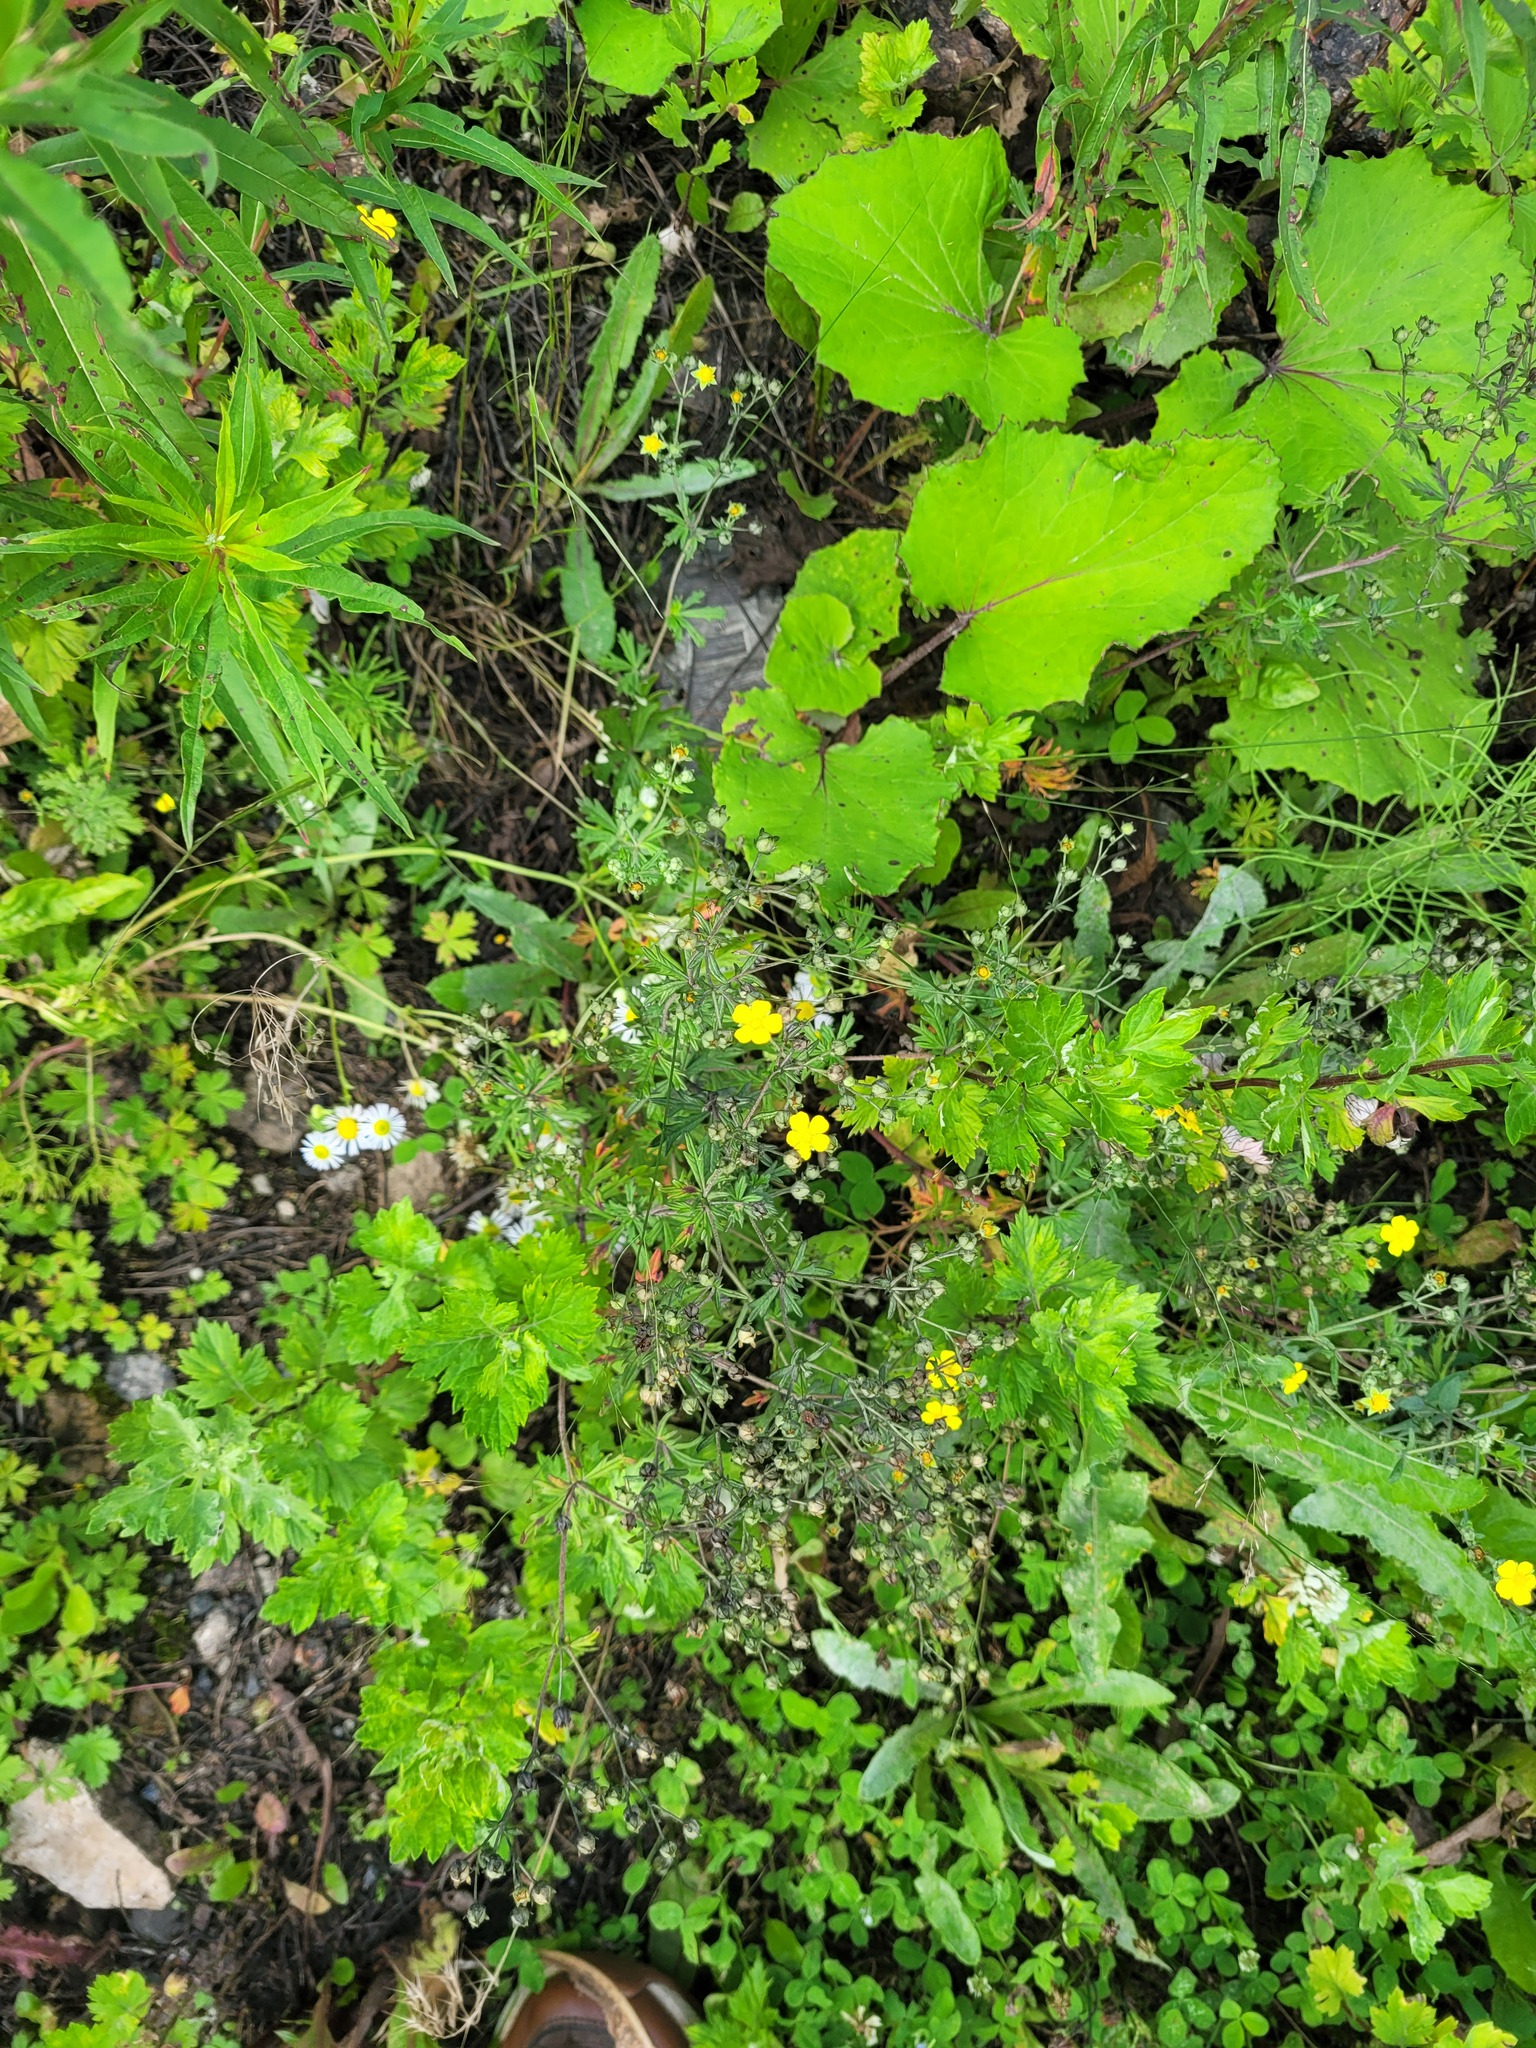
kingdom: Plantae
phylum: Tracheophyta
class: Magnoliopsida
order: Rosales
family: Rosaceae
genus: Potentilla
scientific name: Potentilla argentea
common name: Hoary cinquefoil
